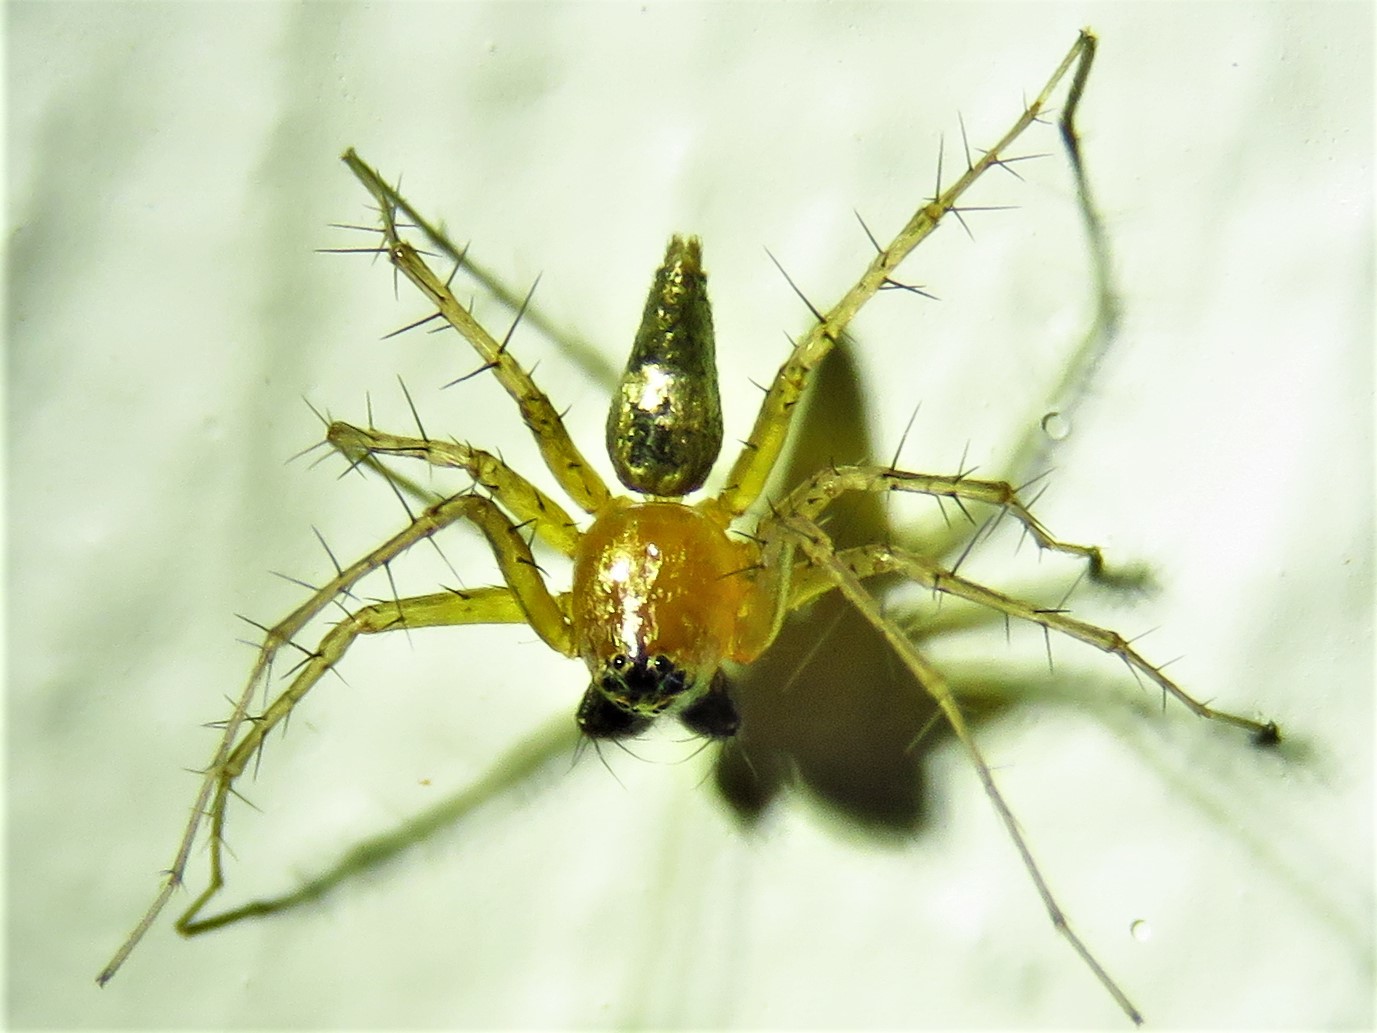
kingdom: Animalia
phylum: Arthropoda
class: Arachnida
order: Araneae
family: Oxyopidae
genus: Oxyopes
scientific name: Oxyopes salticus
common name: Lynx spiders
